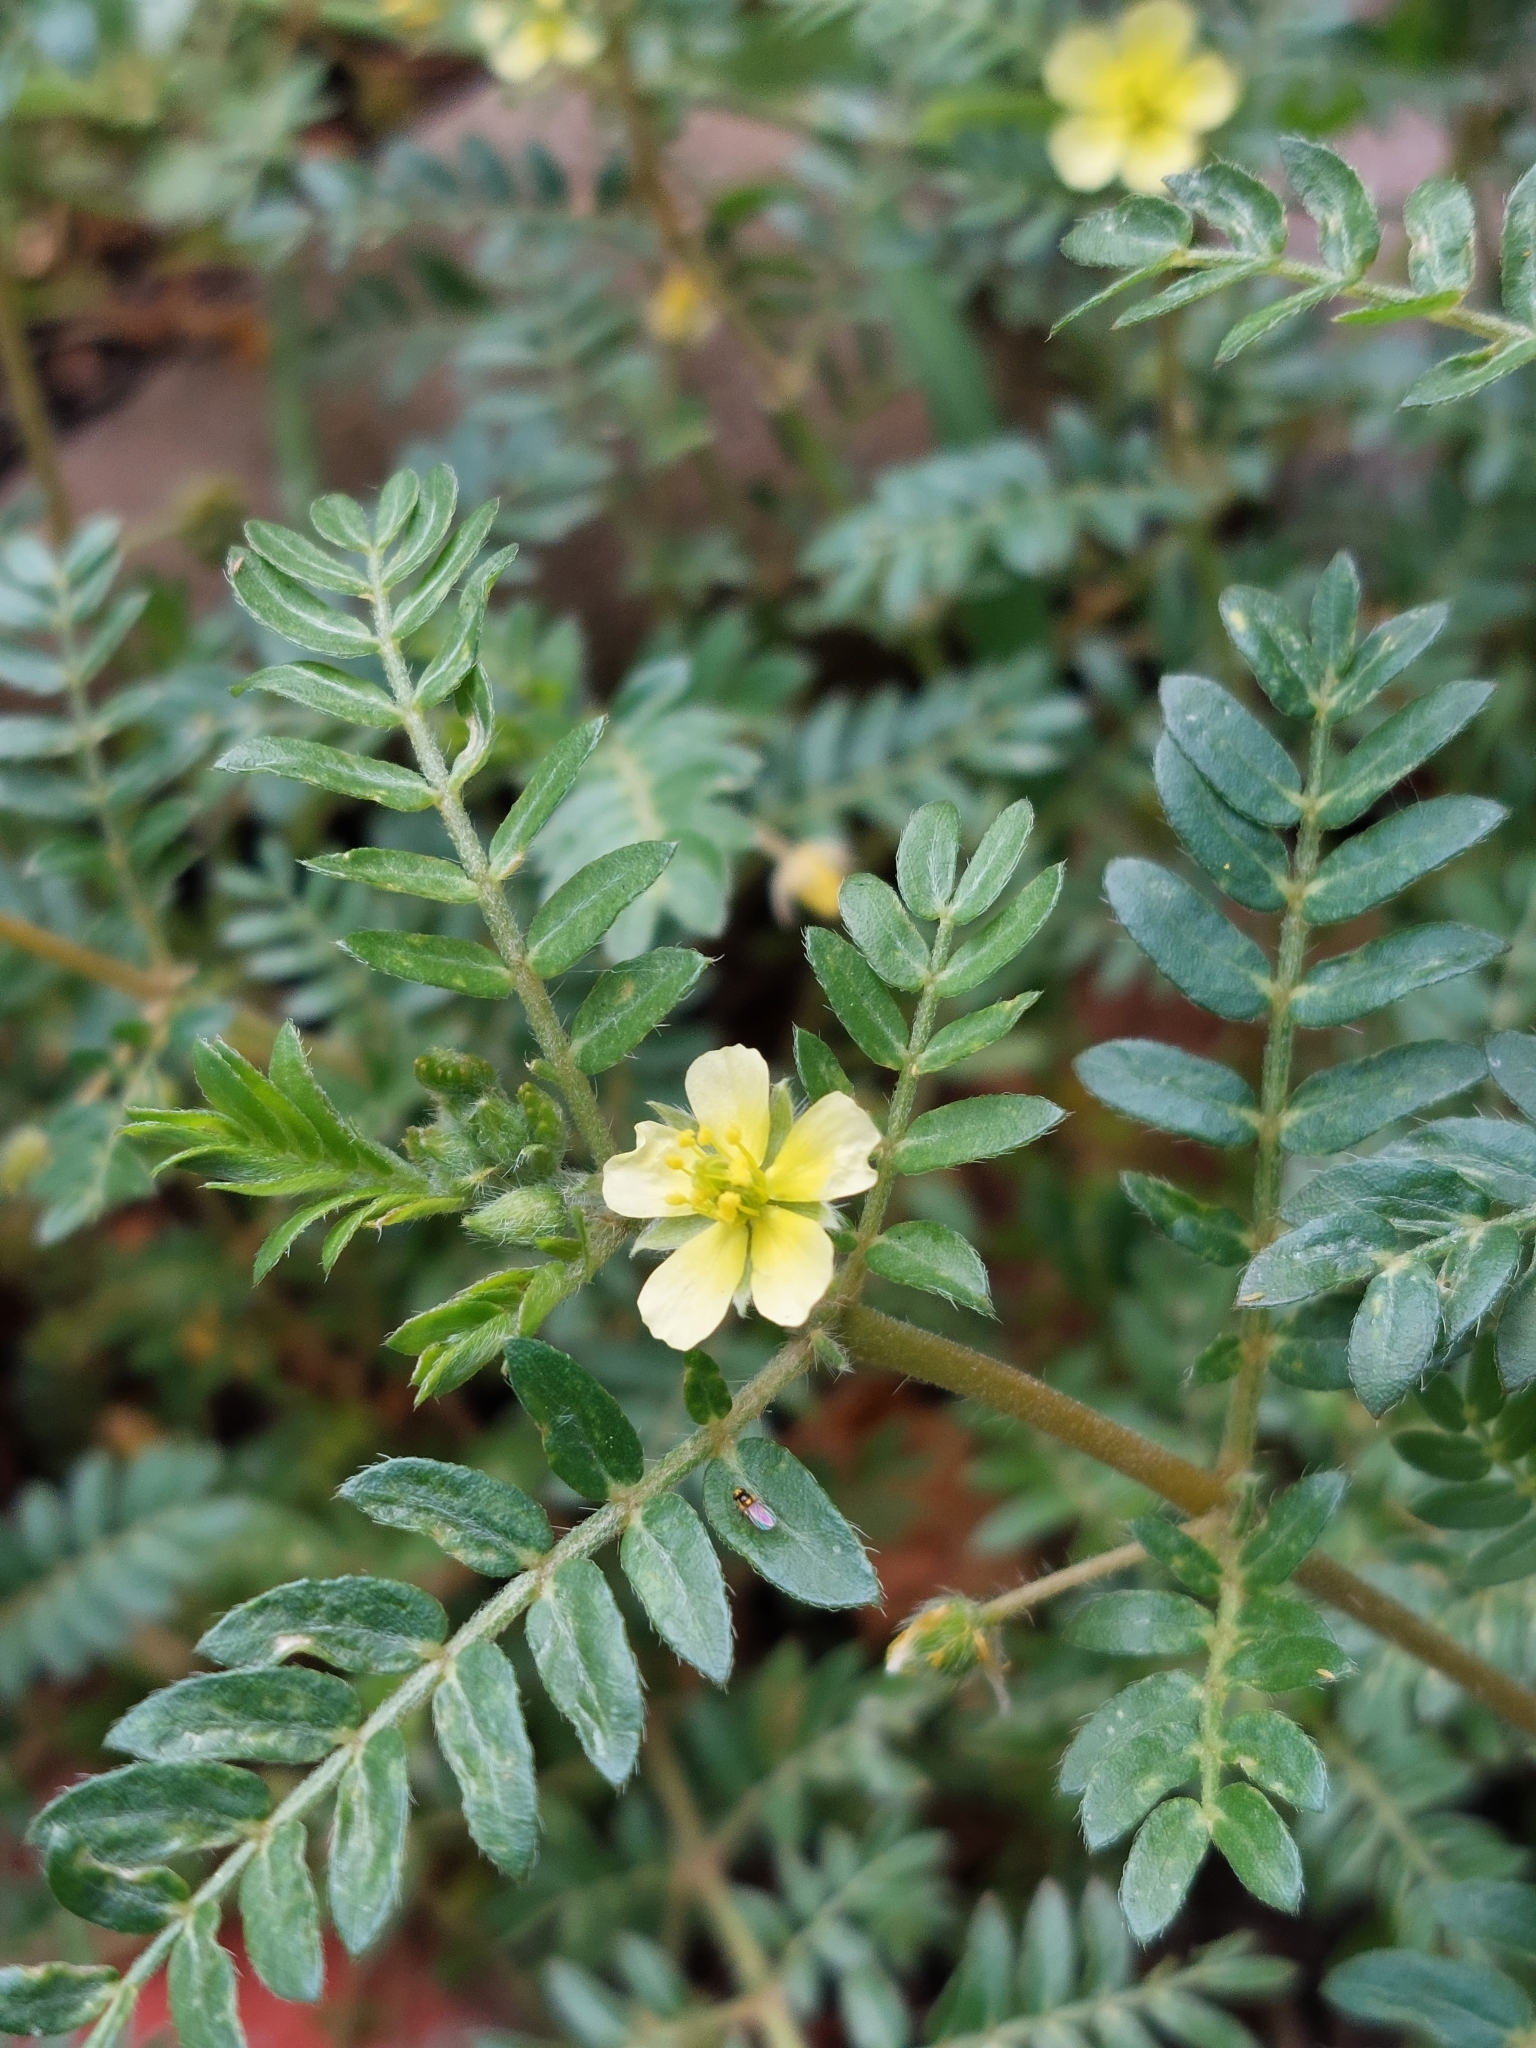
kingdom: Plantae
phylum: Tracheophyta
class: Magnoliopsida
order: Zygophyllales
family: Zygophyllaceae
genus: Tribulus
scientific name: Tribulus terrestris
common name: Puncturevine
